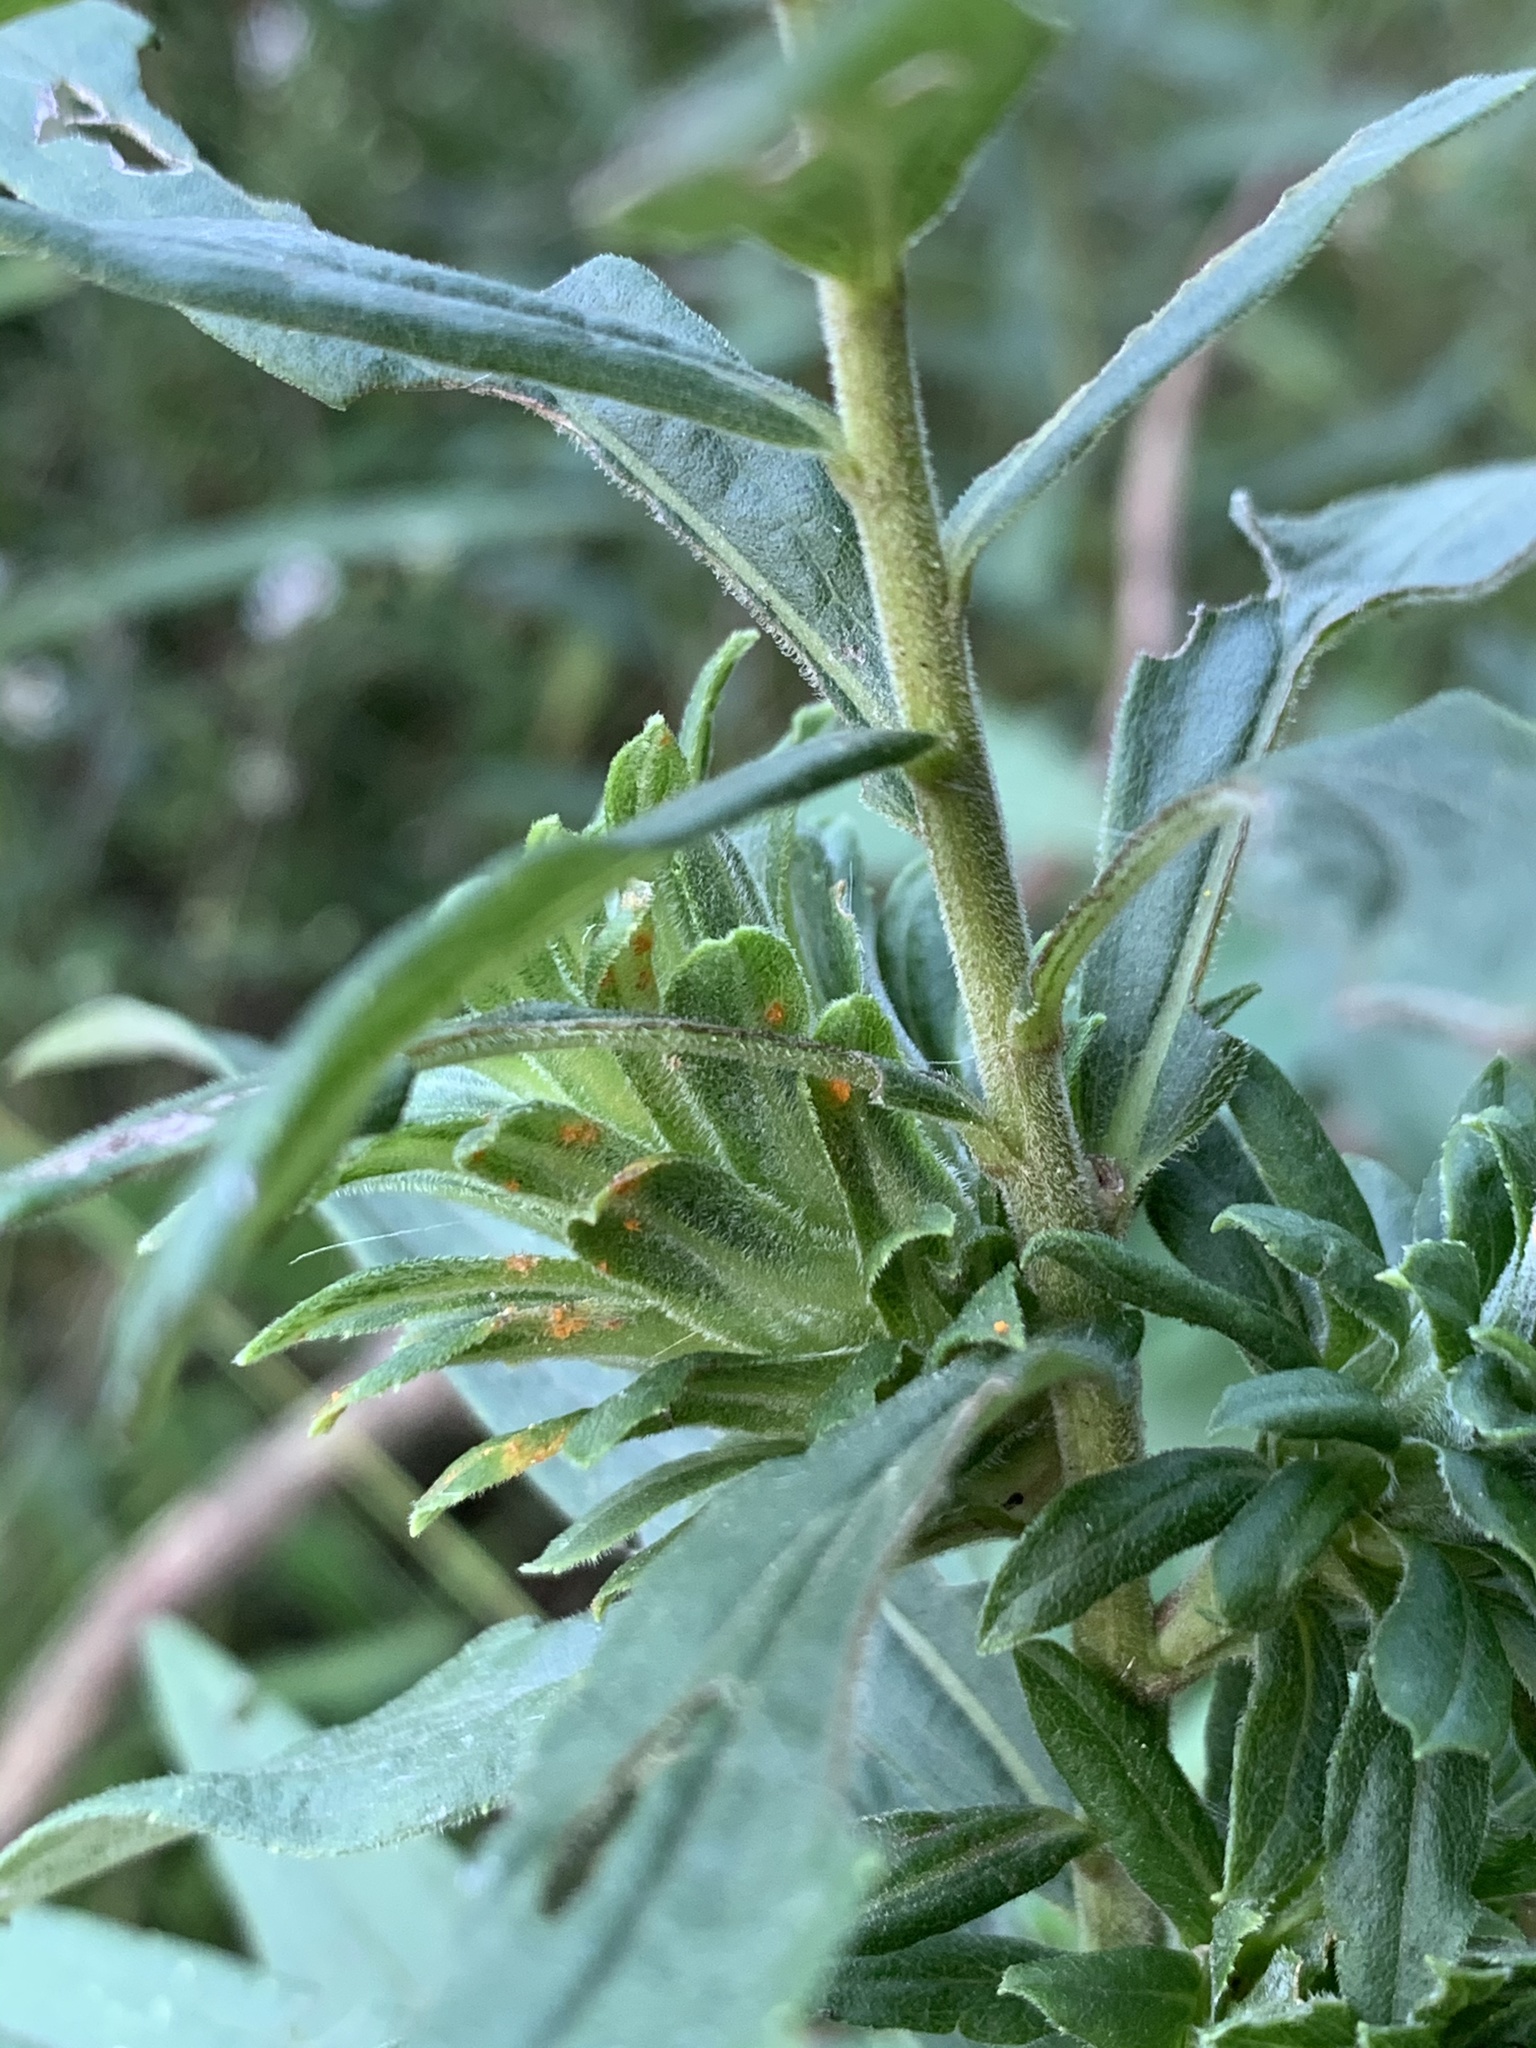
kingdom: Animalia
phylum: Arthropoda
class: Insecta
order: Diptera
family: Tephritidae
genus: Procecidochares
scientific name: Procecidochares atra
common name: Goldenrod brussels sprout gall fly
